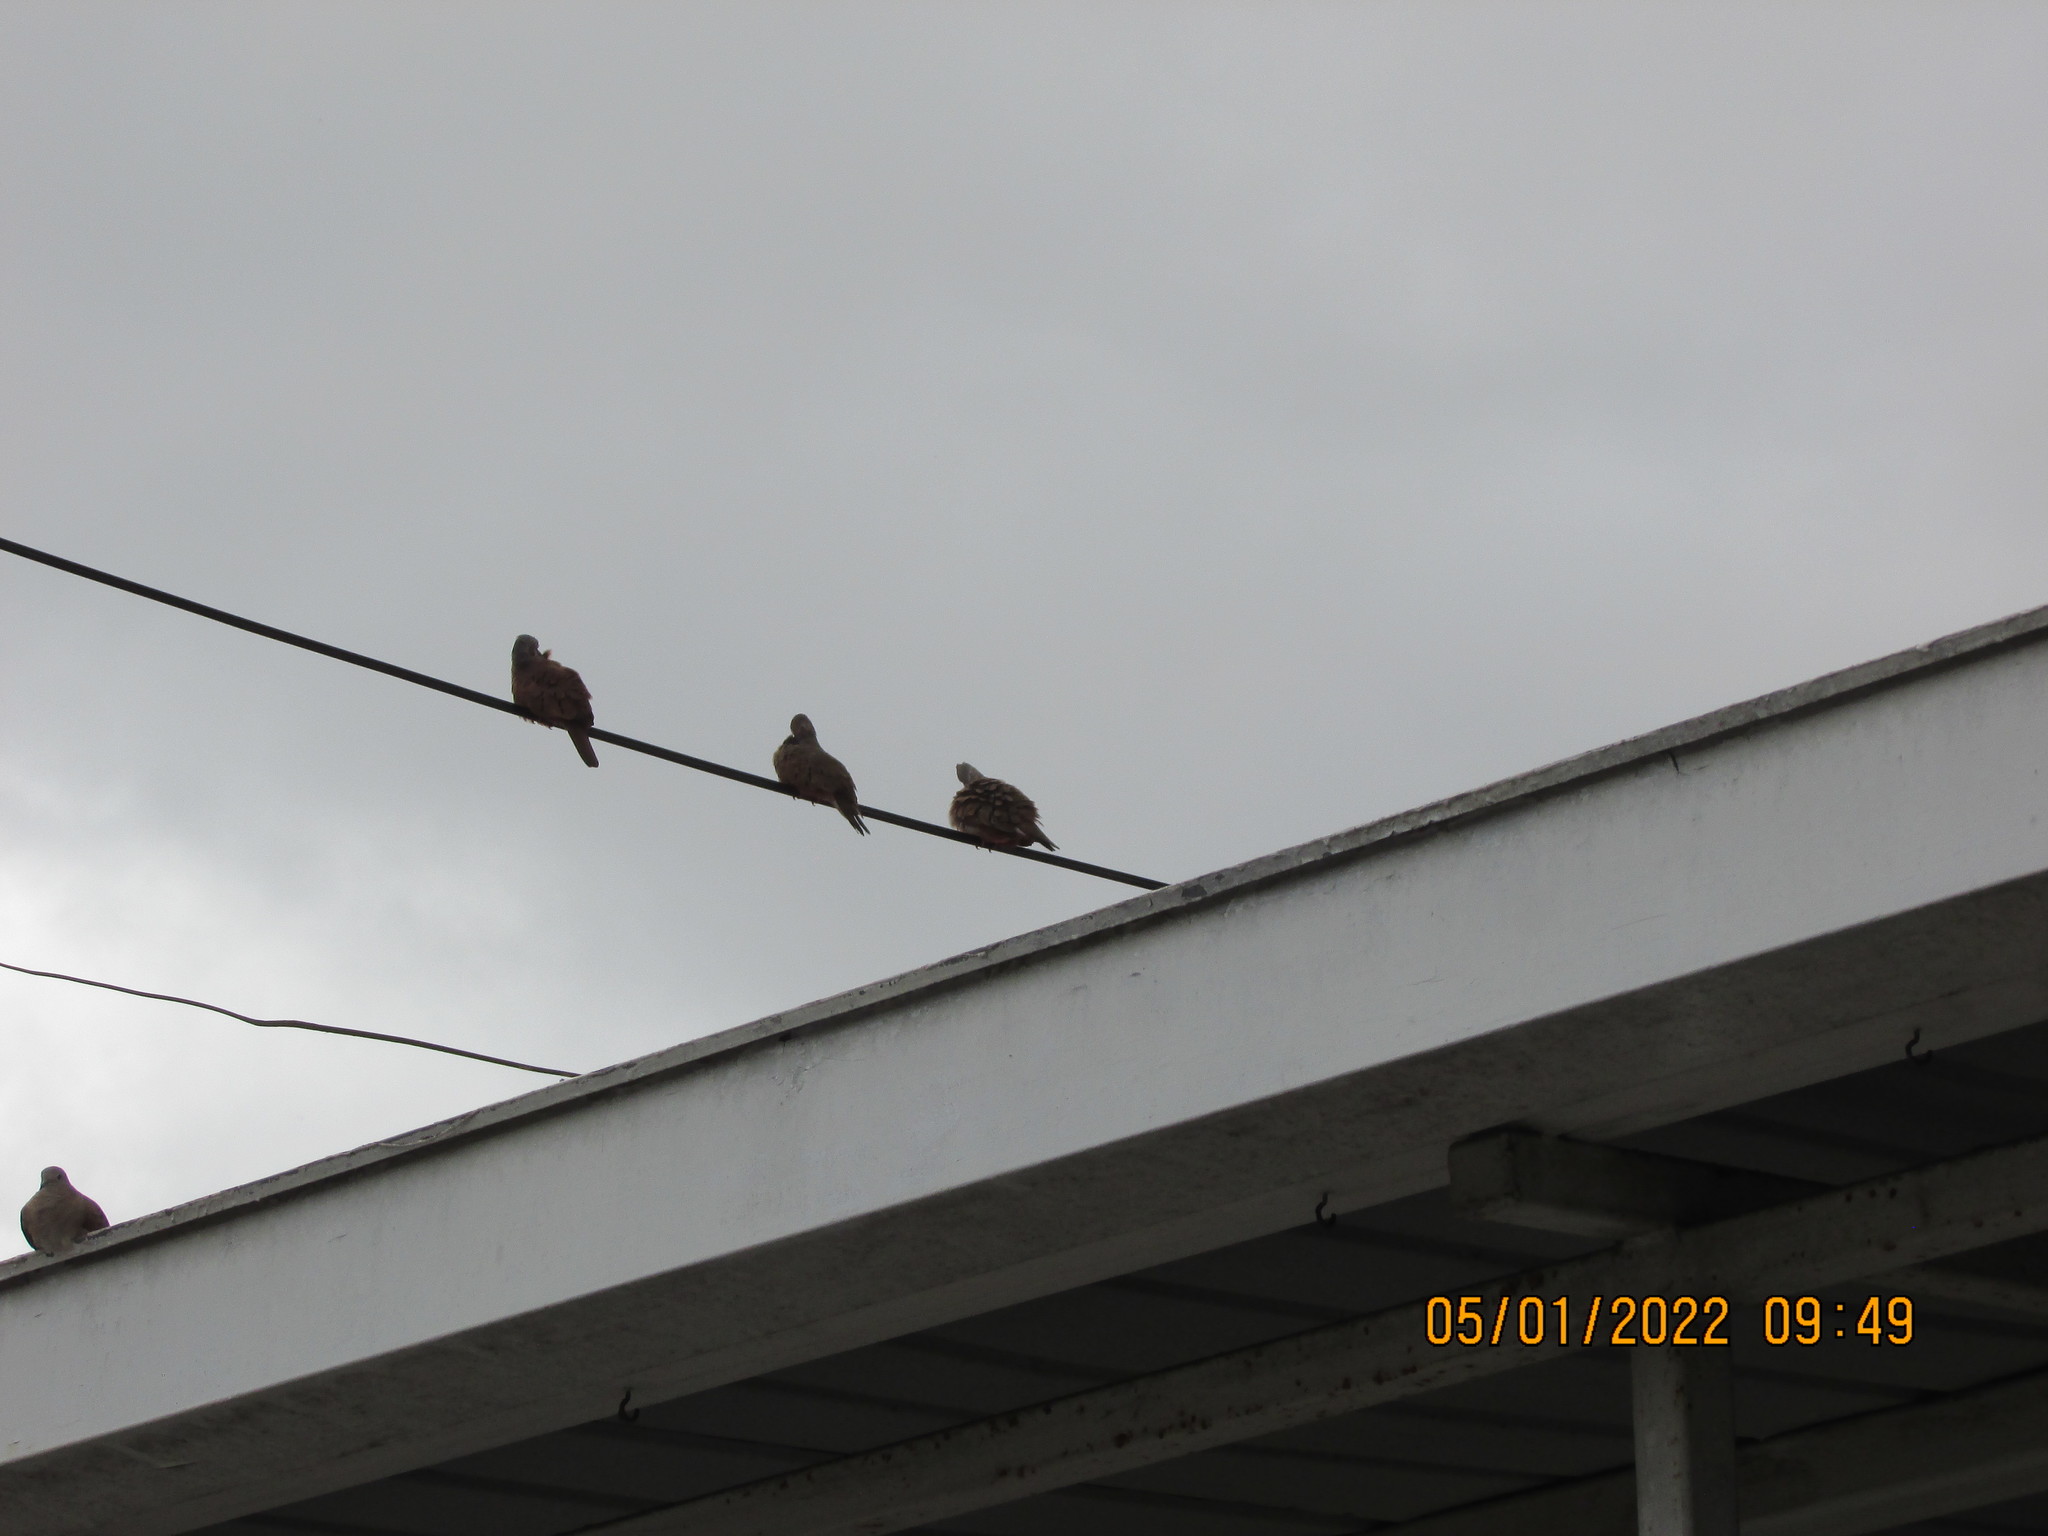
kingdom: Animalia
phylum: Chordata
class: Aves
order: Columbiformes
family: Columbidae
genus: Columbina
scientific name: Columbina talpacoti
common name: Ruddy ground dove
